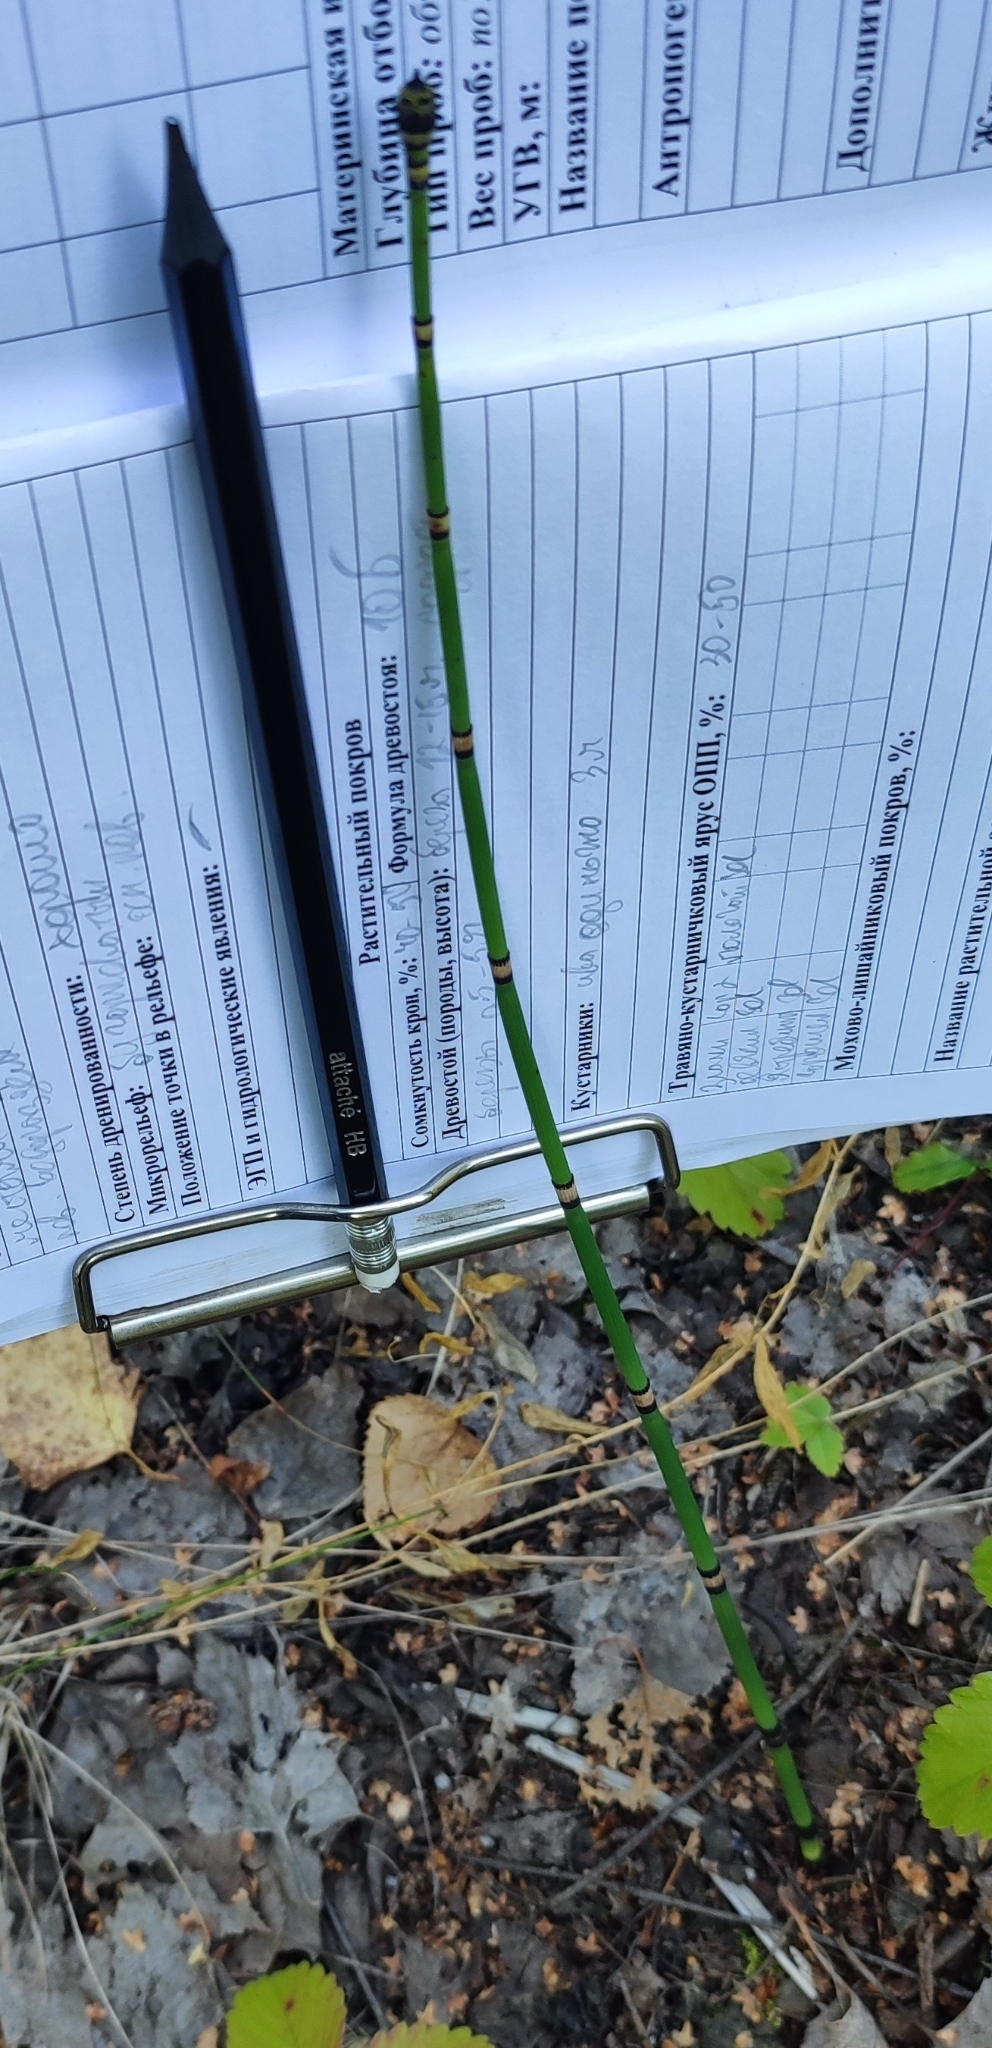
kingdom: Plantae
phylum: Tracheophyta
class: Polypodiopsida
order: Equisetales
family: Equisetaceae
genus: Equisetum
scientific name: Equisetum hyemale
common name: Rough horsetail
